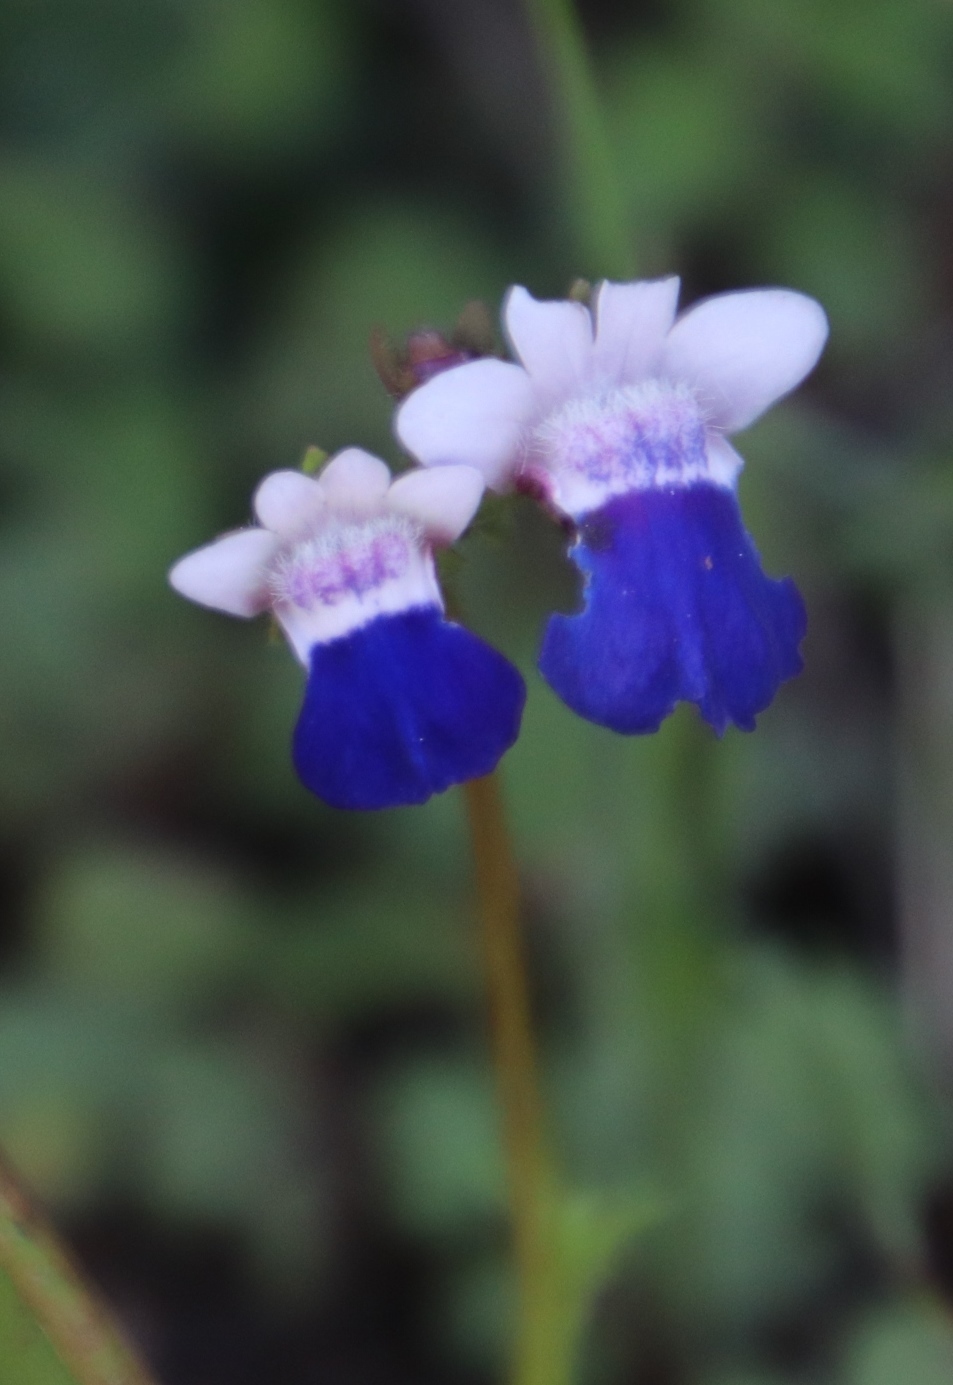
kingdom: Plantae
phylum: Tracheophyta
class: Magnoliopsida
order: Lamiales
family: Scrophulariaceae
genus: Nemesia
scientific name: Nemesia barbata
